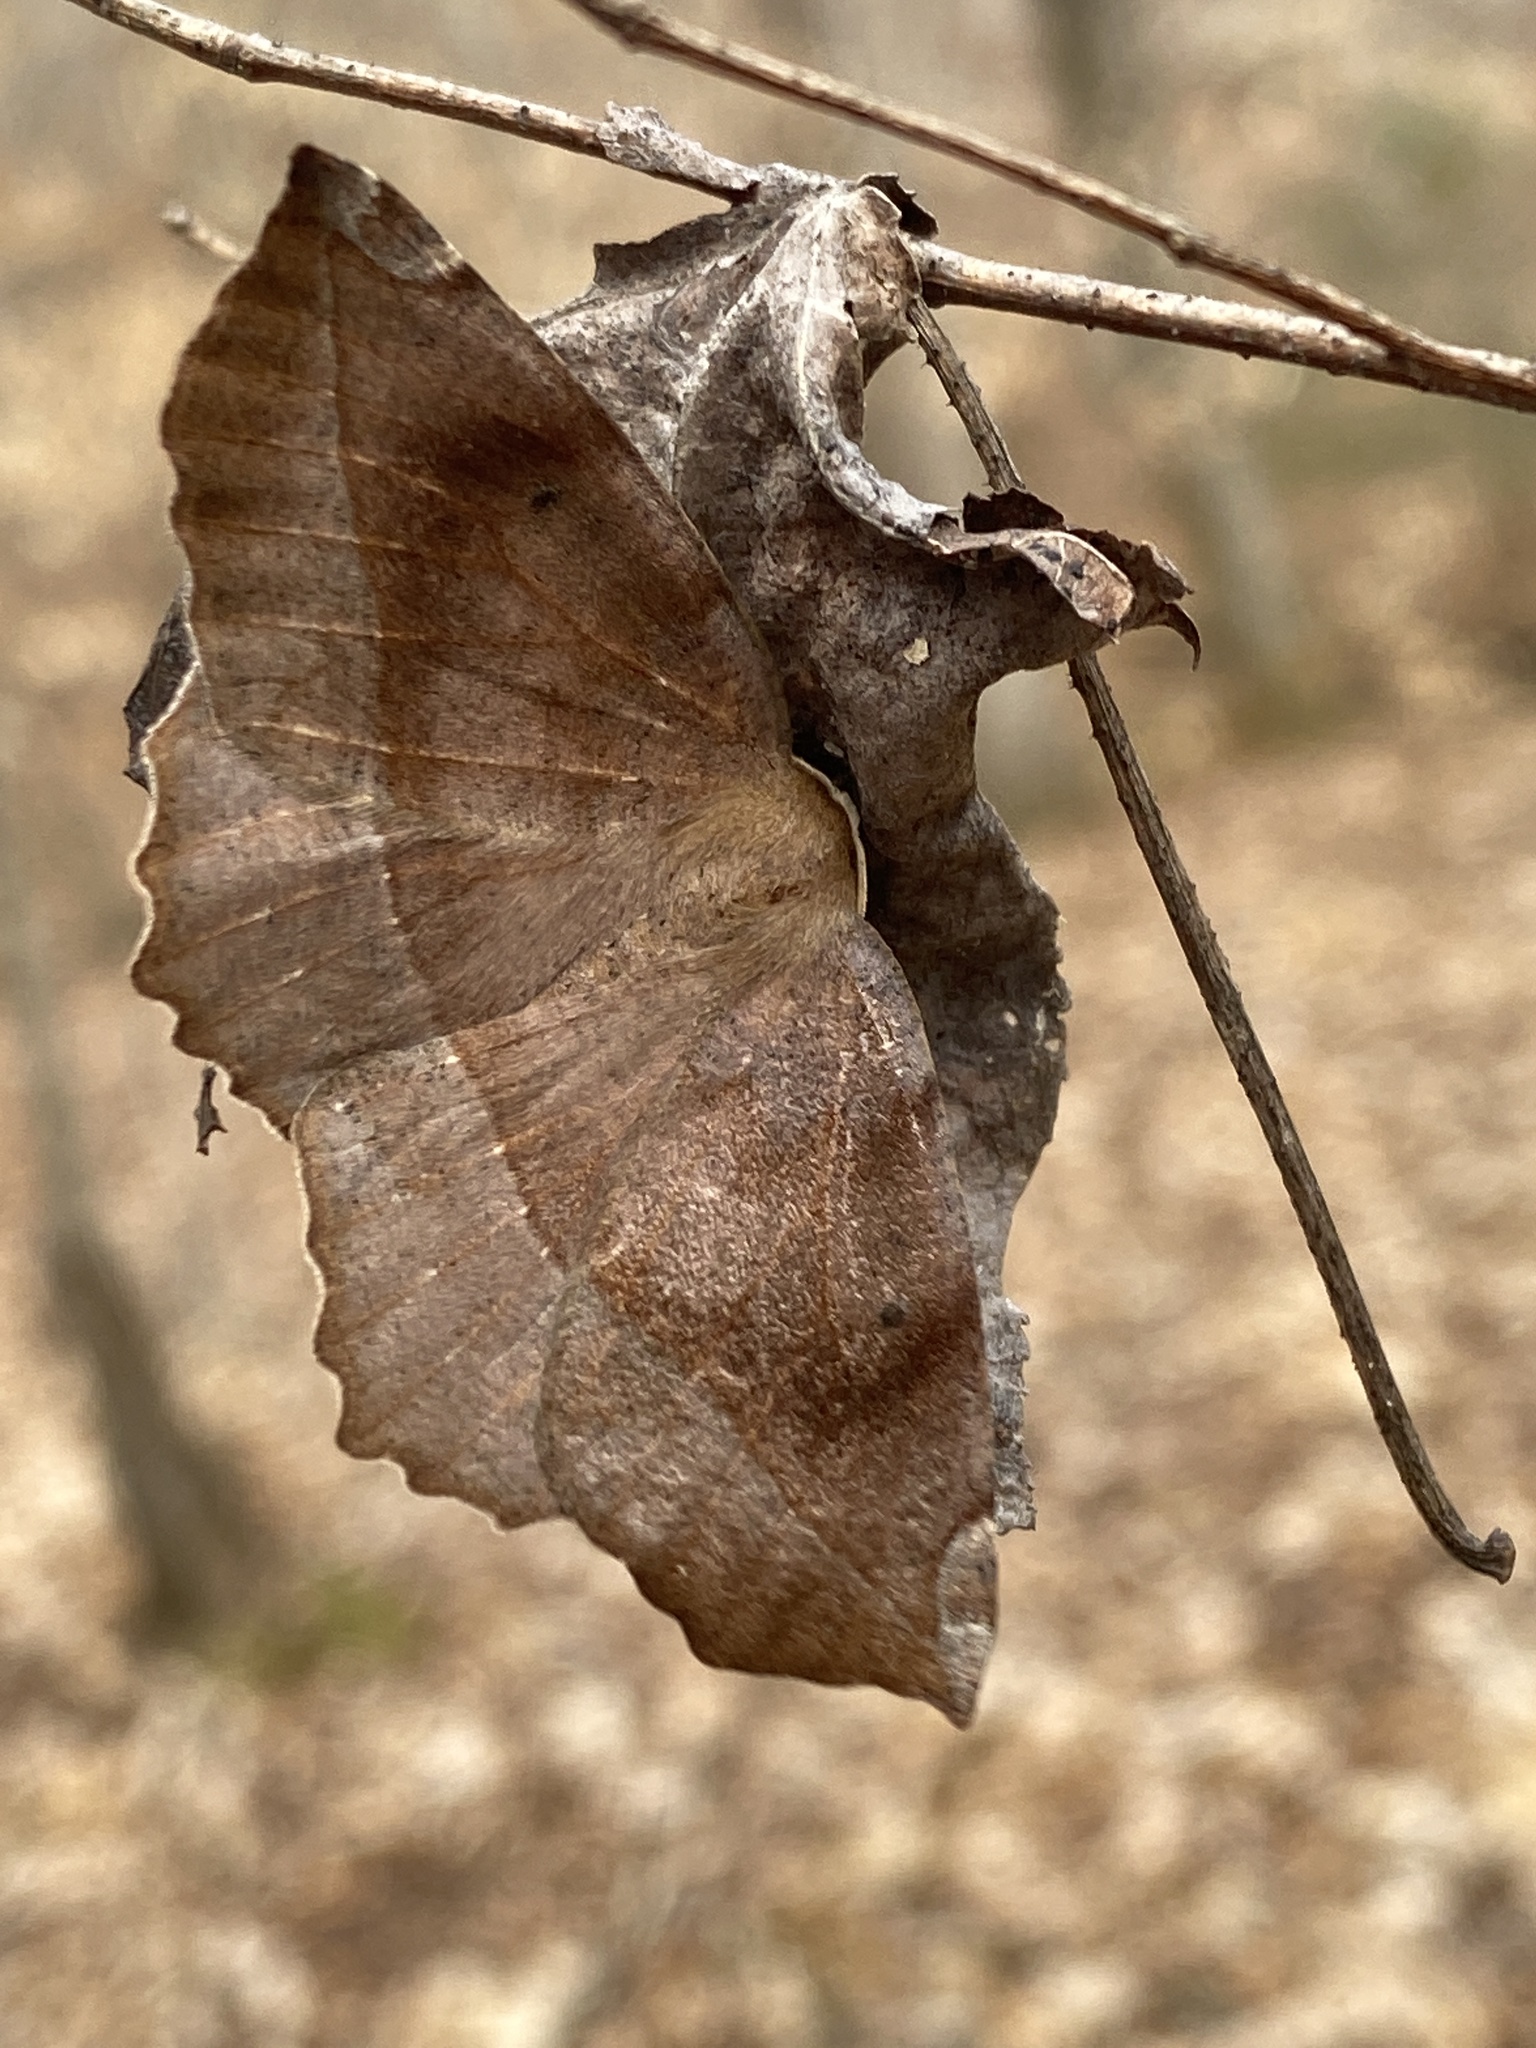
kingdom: Animalia
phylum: Arthropoda
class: Insecta
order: Lepidoptera
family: Geometridae
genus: Eutrapela
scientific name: Eutrapela clemataria
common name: Curved-toothed geometer
